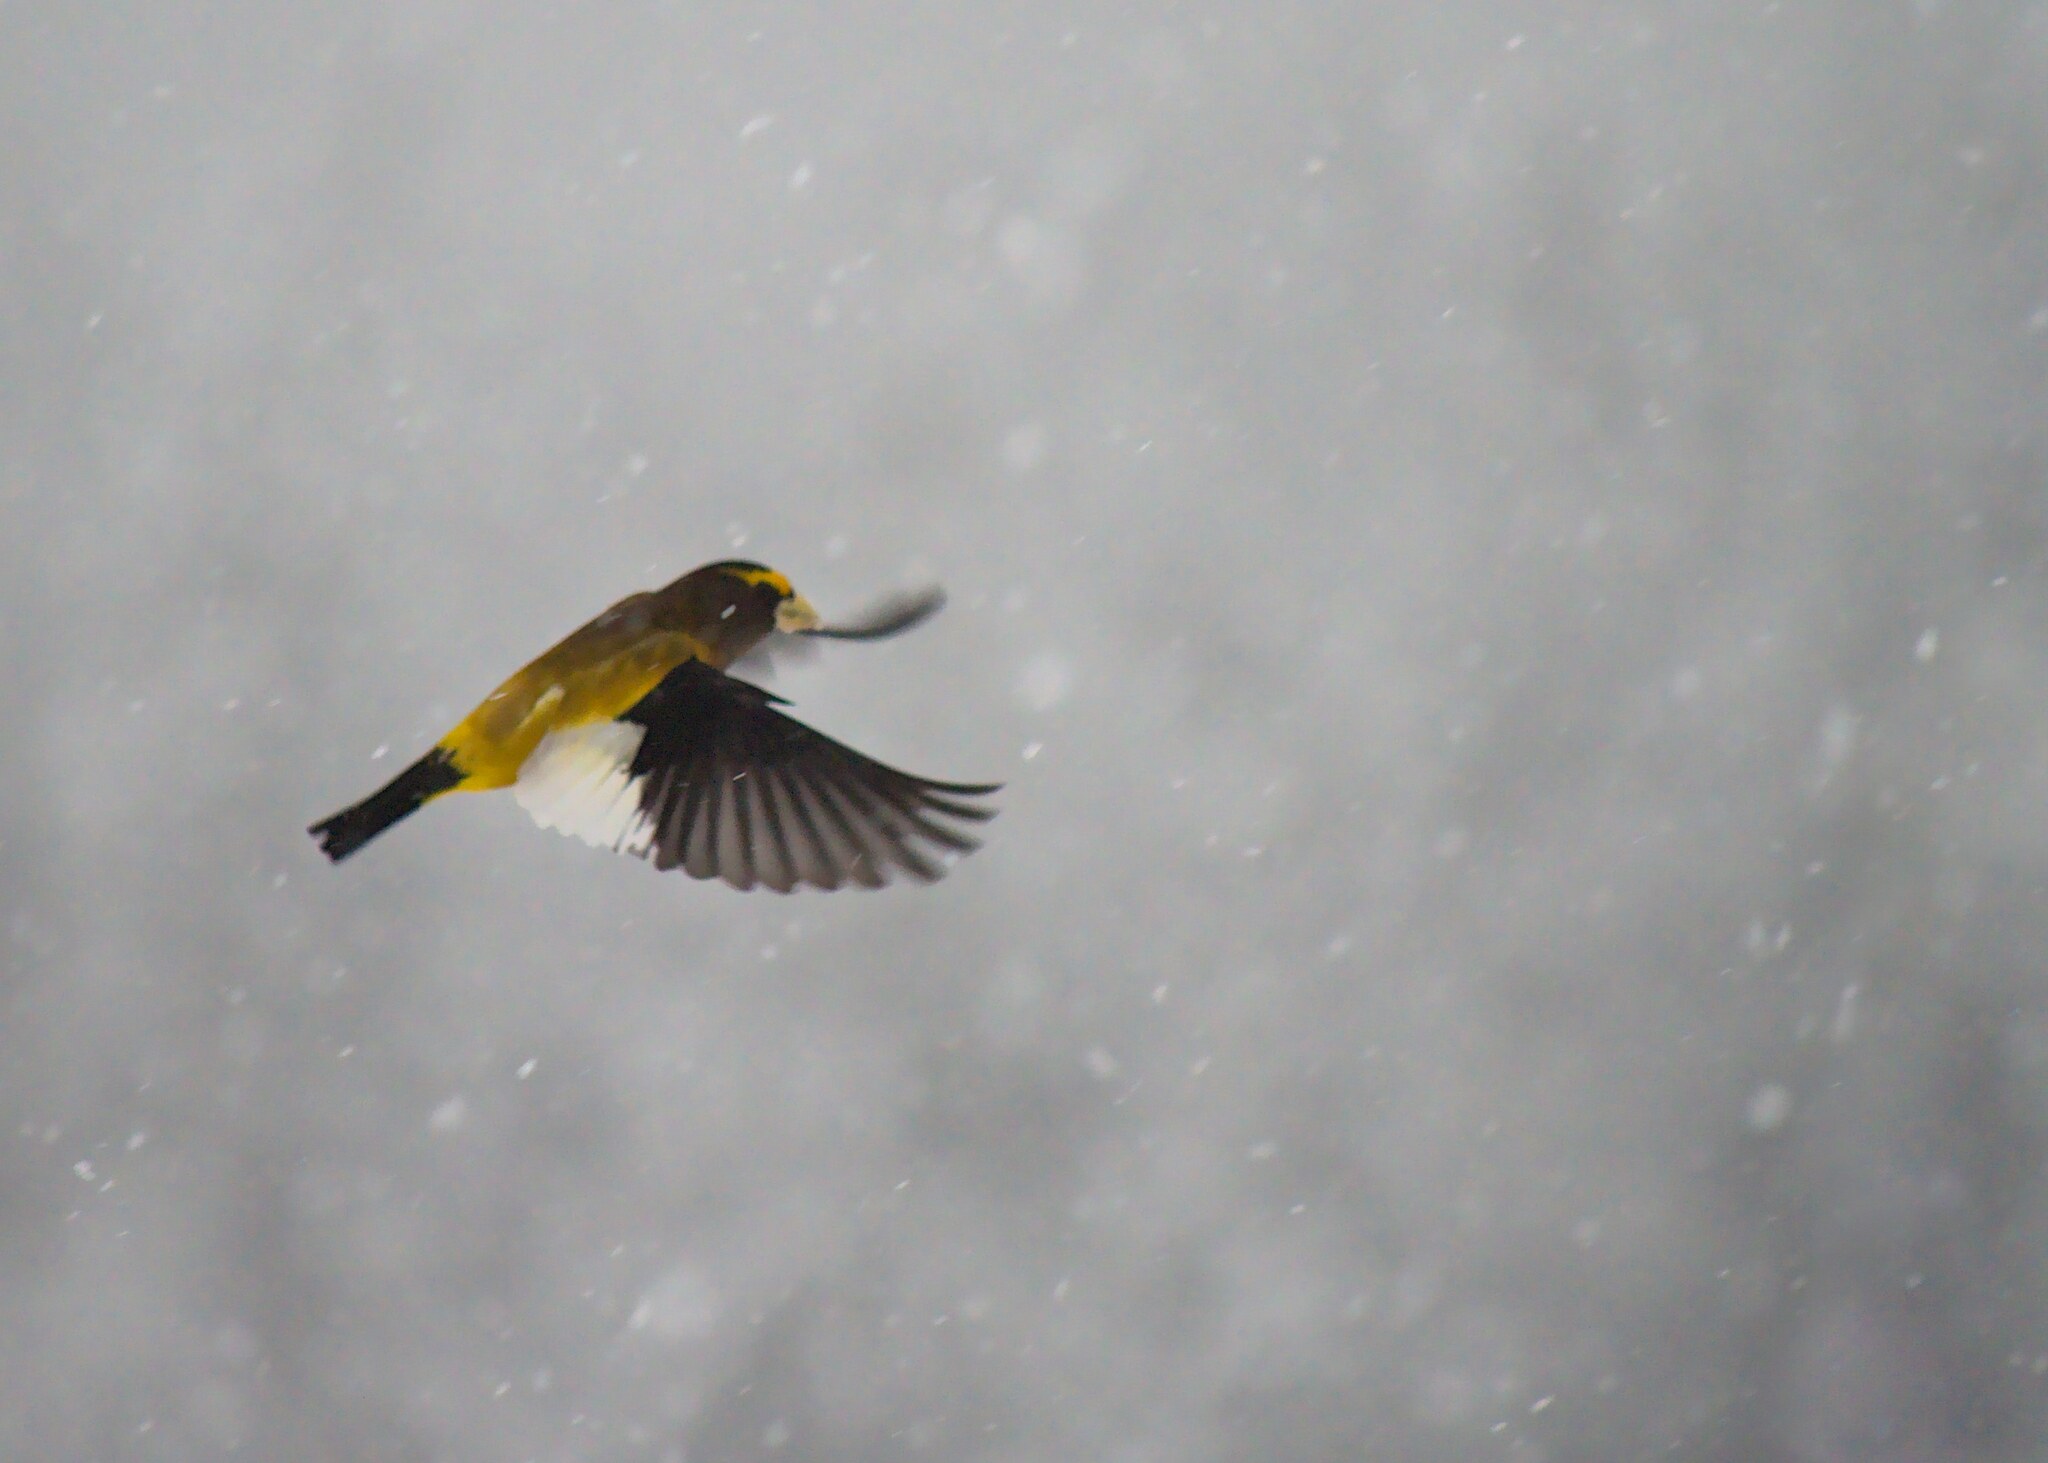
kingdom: Animalia
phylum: Chordata
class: Aves
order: Passeriformes
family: Fringillidae
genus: Hesperiphona
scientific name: Hesperiphona vespertina
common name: Evening grosbeak
